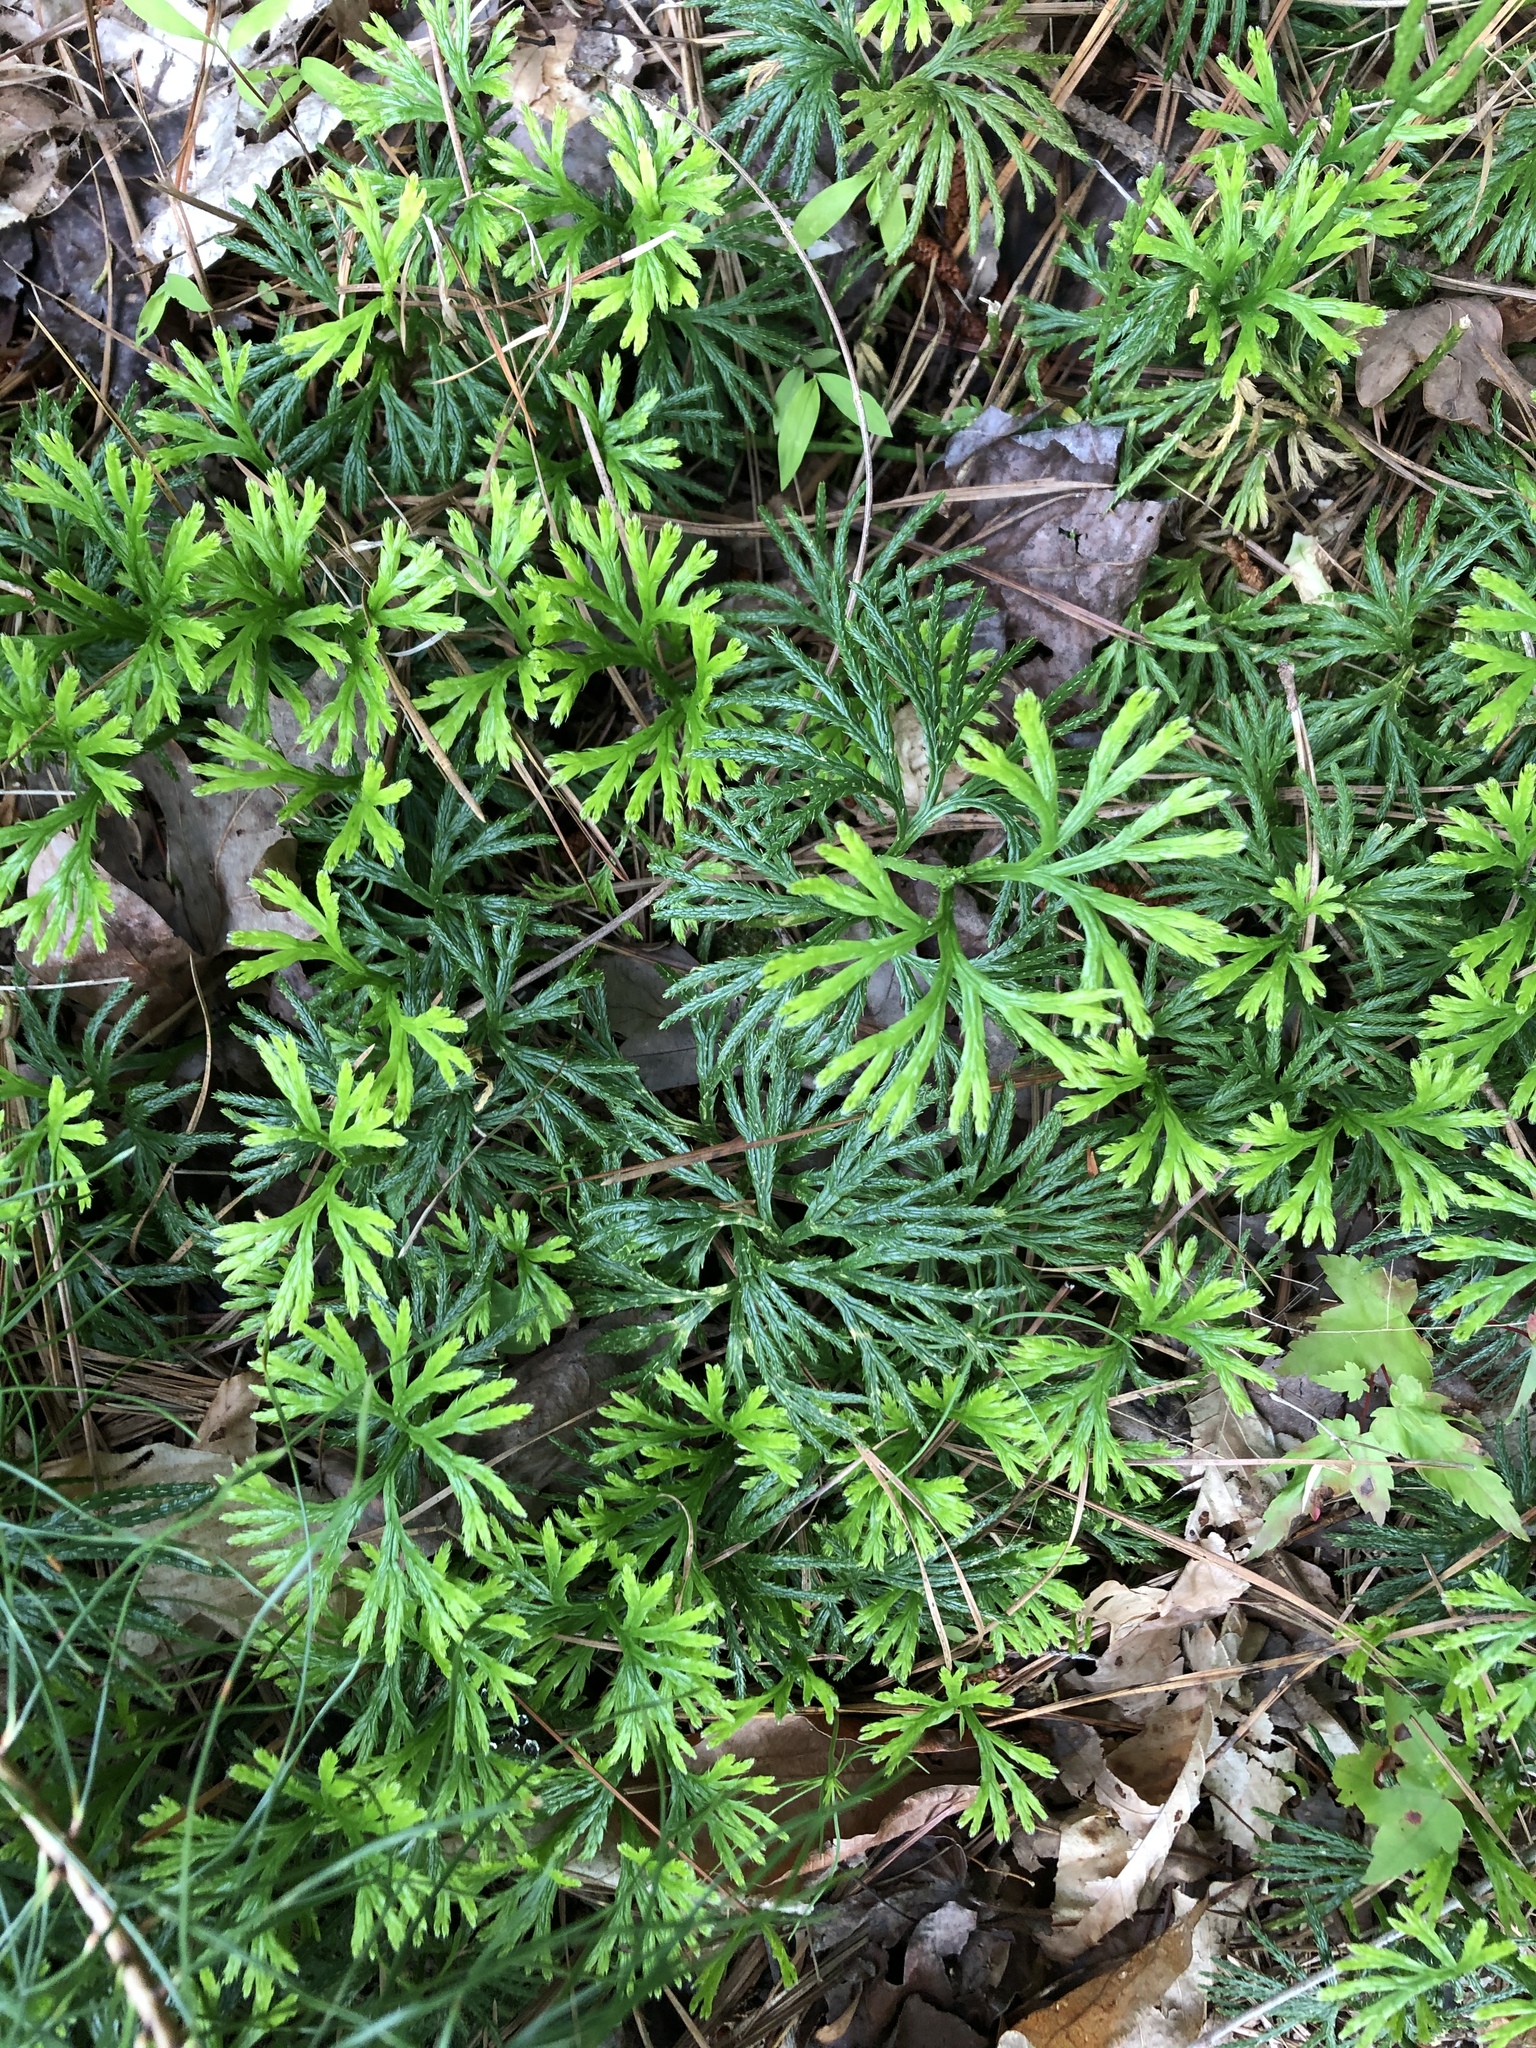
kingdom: Plantae
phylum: Tracheophyta
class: Lycopodiopsida
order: Lycopodiales
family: Lycopodiaceae
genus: Diphasiastrum
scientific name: Diphasiastrum digitatum
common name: Southern running-pine
